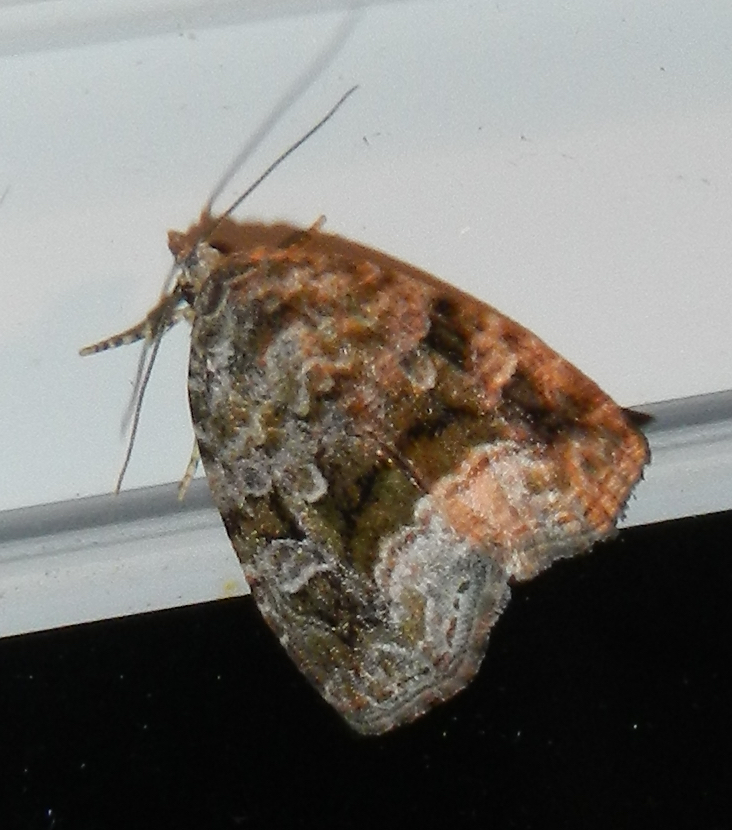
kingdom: Animalia
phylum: Arthropoda
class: Insecta
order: Lepidoptera
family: Noctuidae
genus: Protodeltote
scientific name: Protodeltote muscosula
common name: Large mossy glyph
